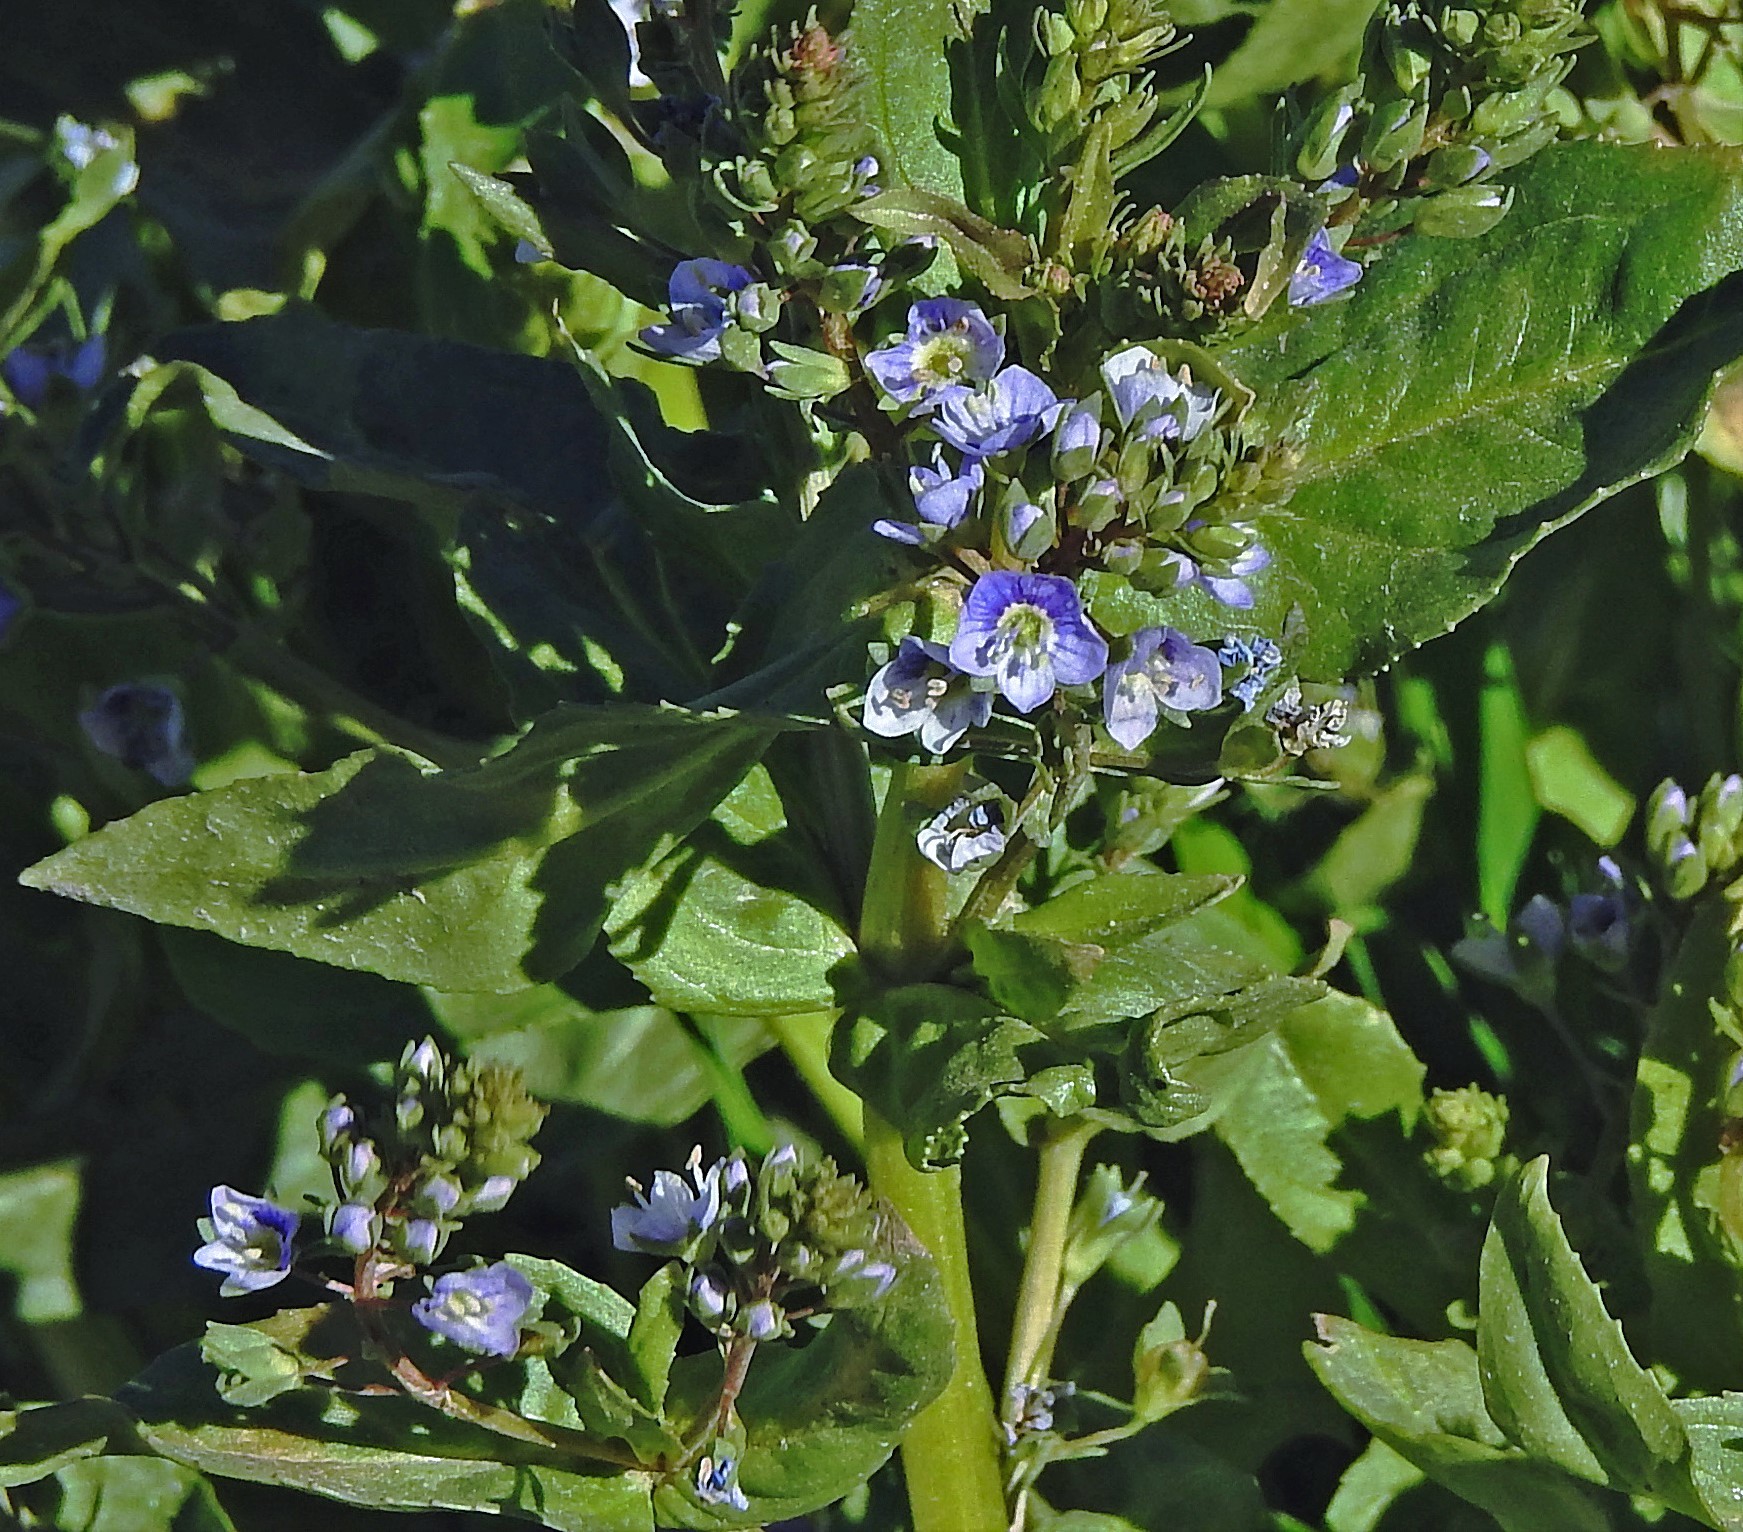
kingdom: Plantae
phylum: Tracheophyta
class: Magnoliopsida
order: Lamiales
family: Plantaginaceae
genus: Veronica
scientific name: Veronica anagallis-aquatica
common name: Water speedwell
